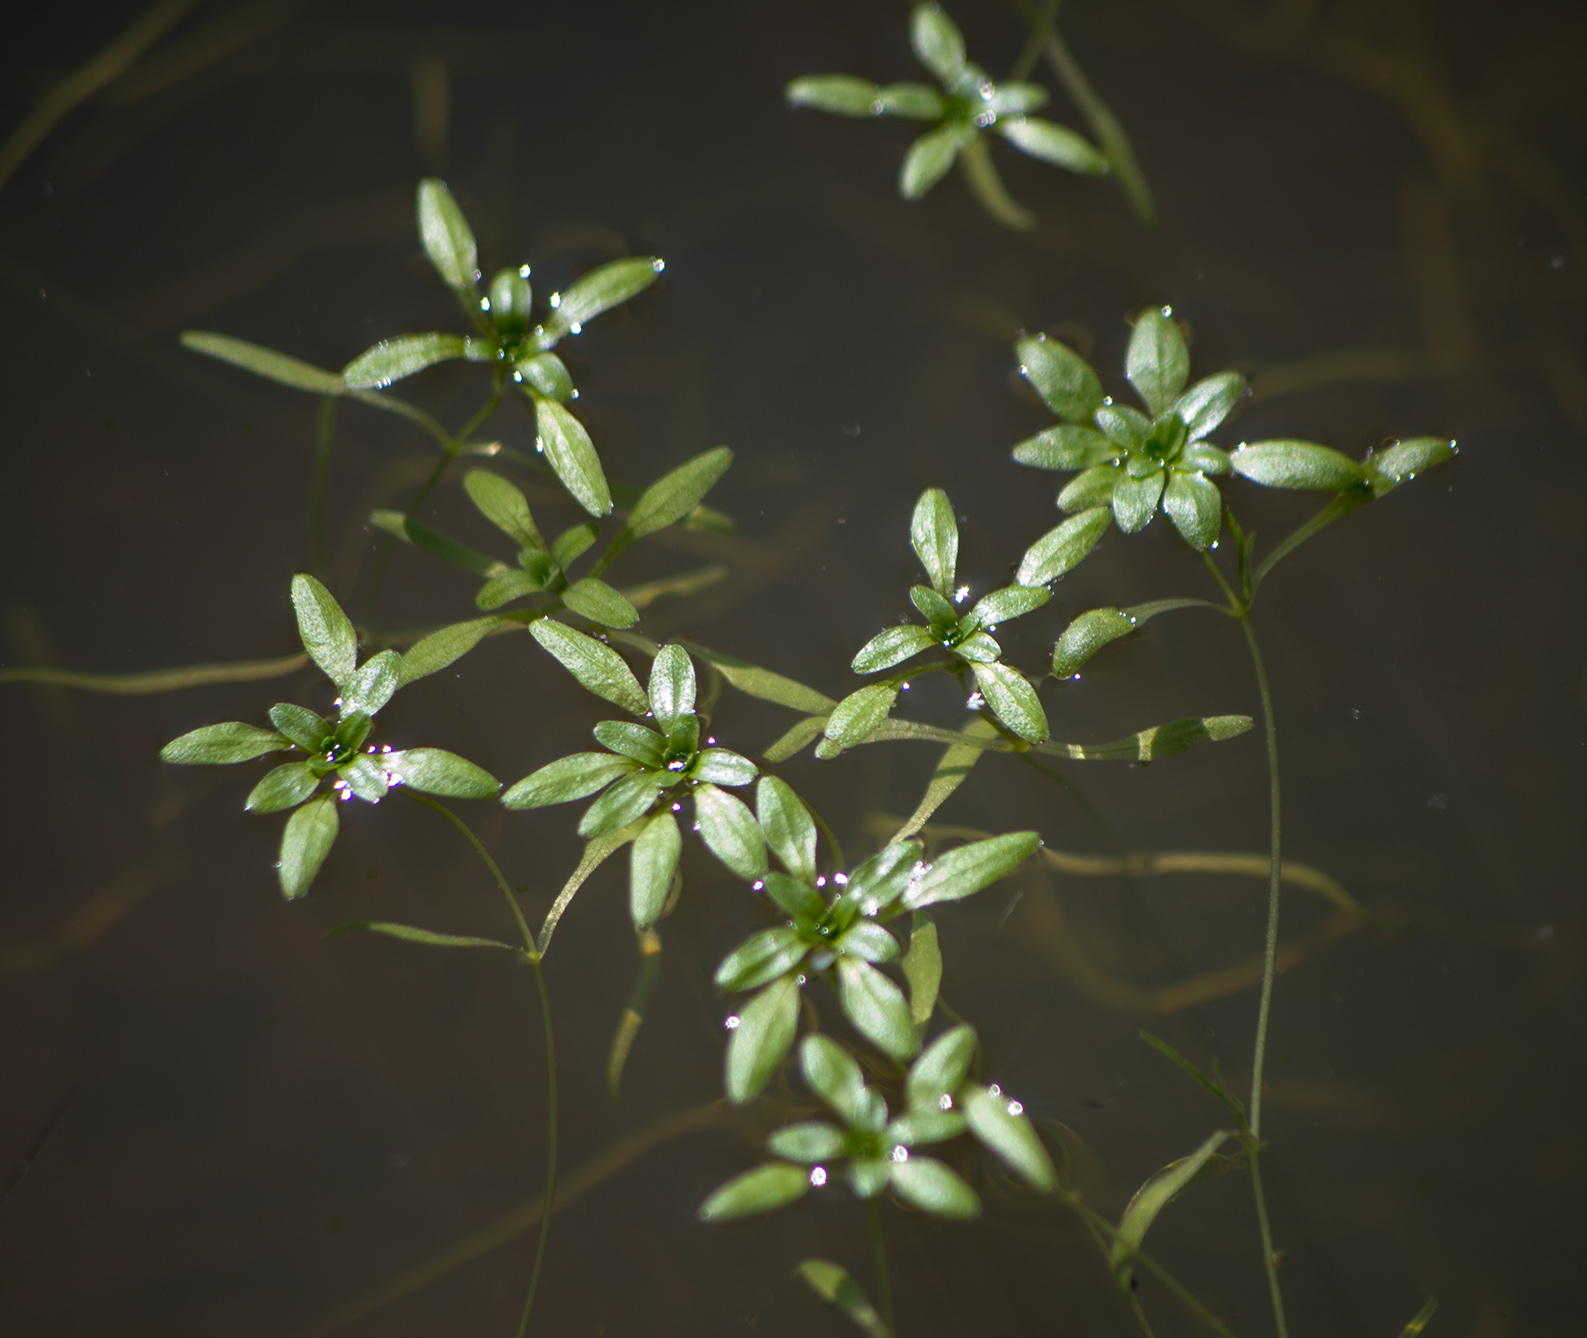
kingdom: Plantae
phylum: Tracheophyta
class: Magnoliopsida
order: Lamiales
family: Plantaginaceae
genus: Callitriche
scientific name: Callitriche palustris
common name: Spring water-starwort
